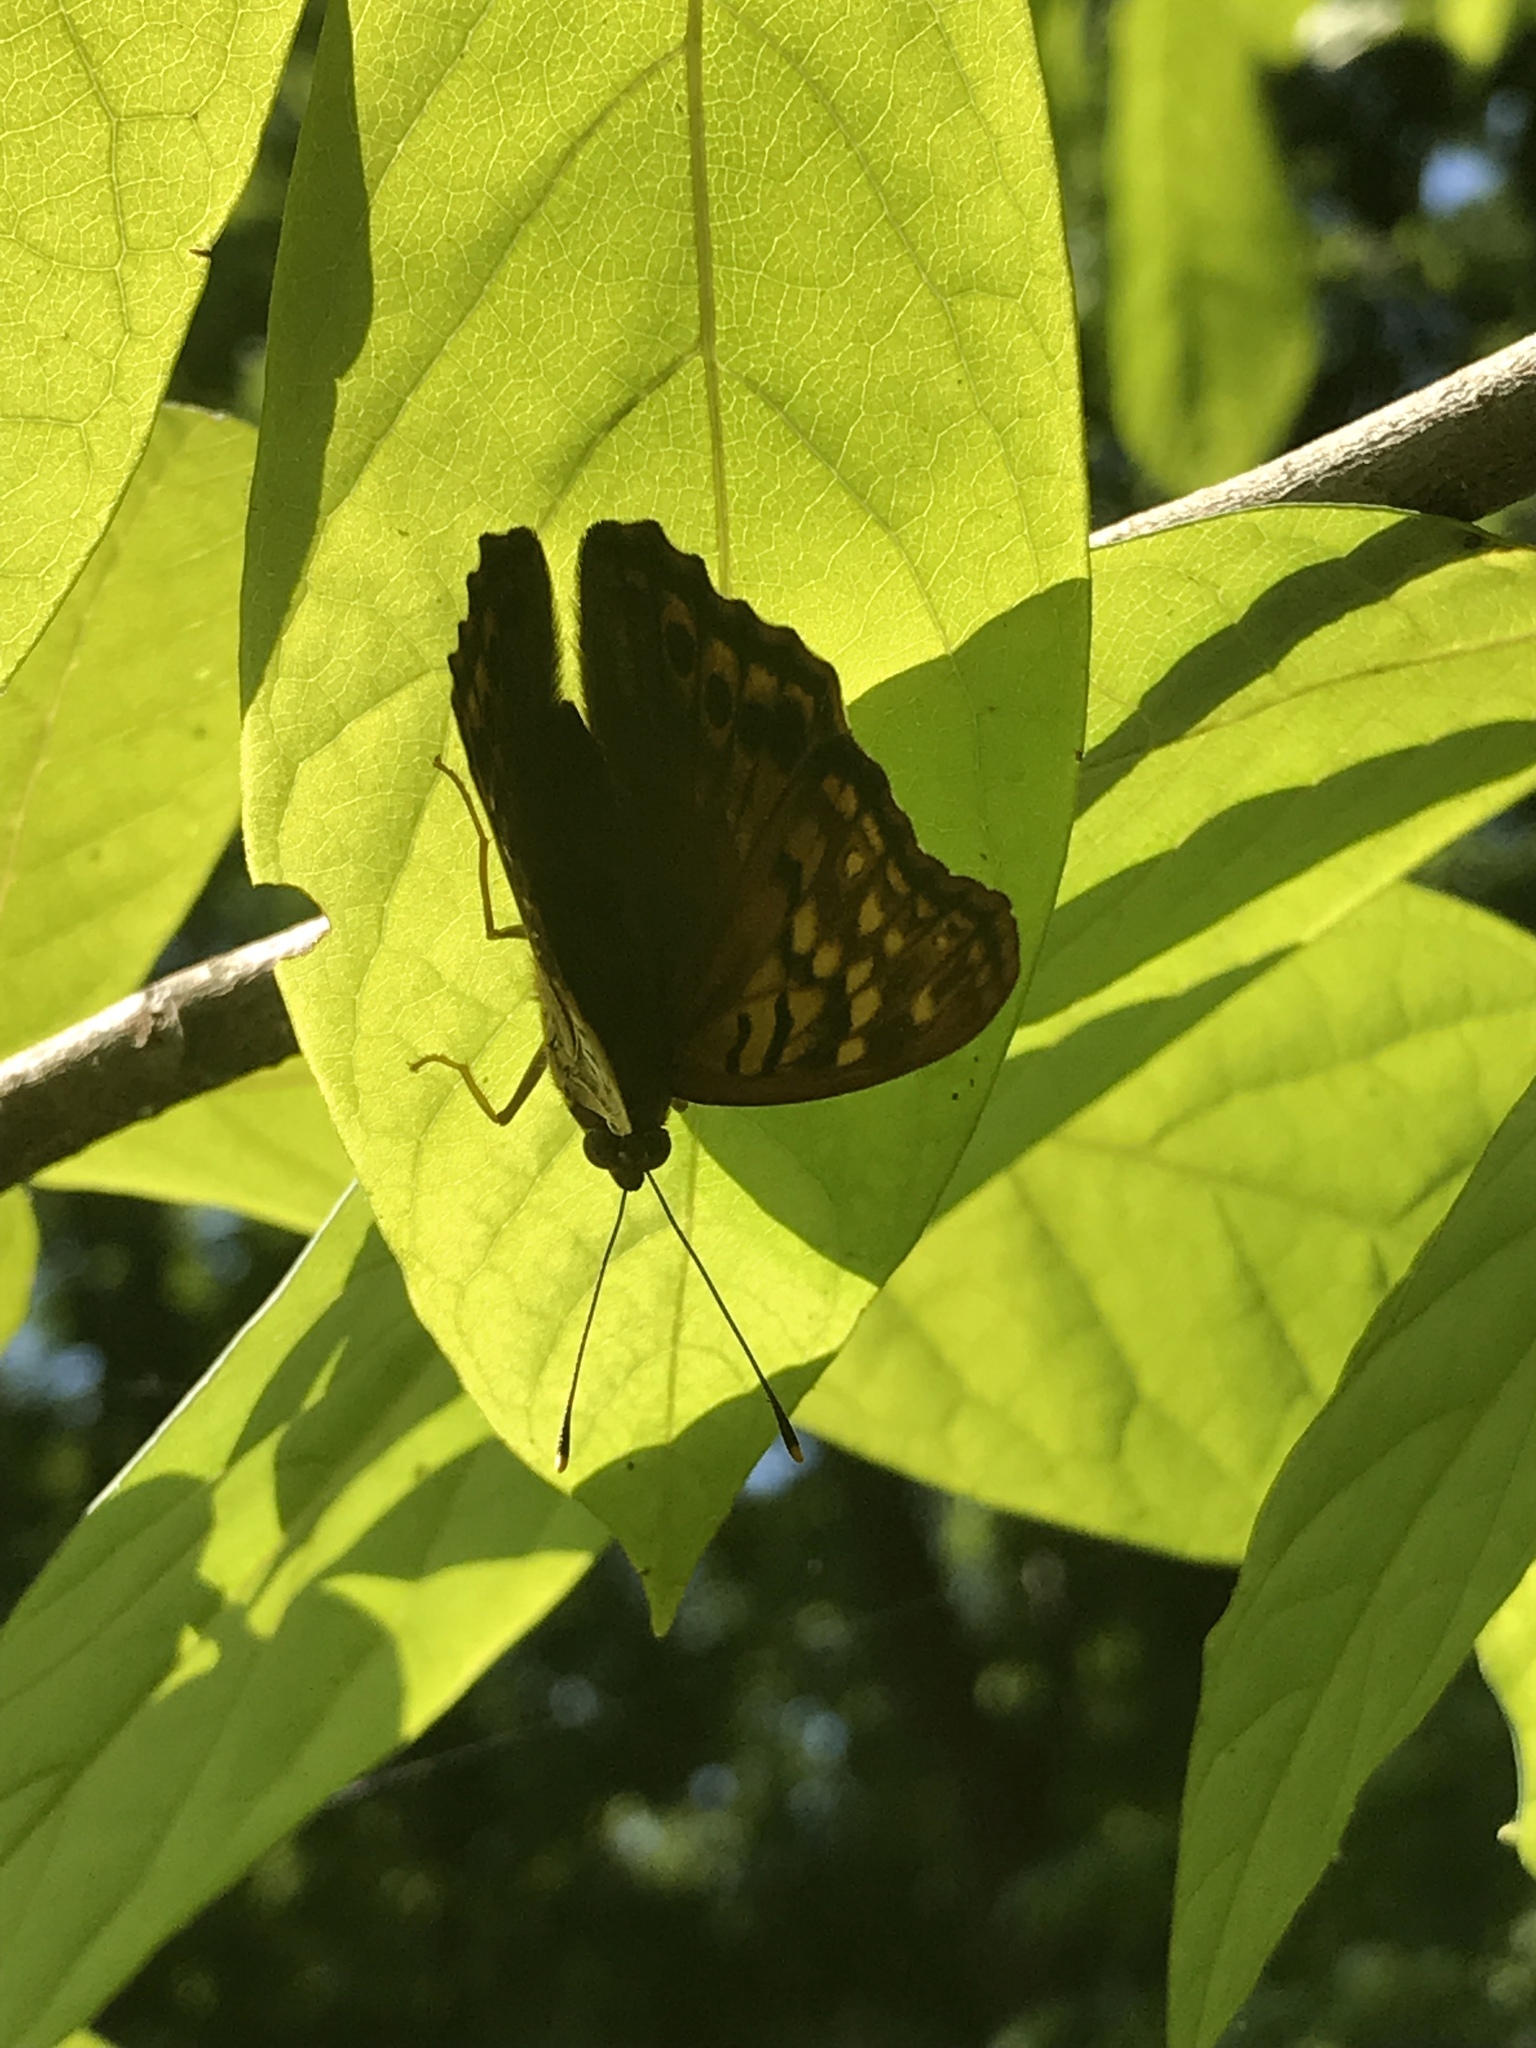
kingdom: Animalia
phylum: Arthropoda
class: Insecta
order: Lepidoptera
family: Nymphalidae
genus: Asterocampa
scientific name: Asterocampa clyton
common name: Tawny emperor
